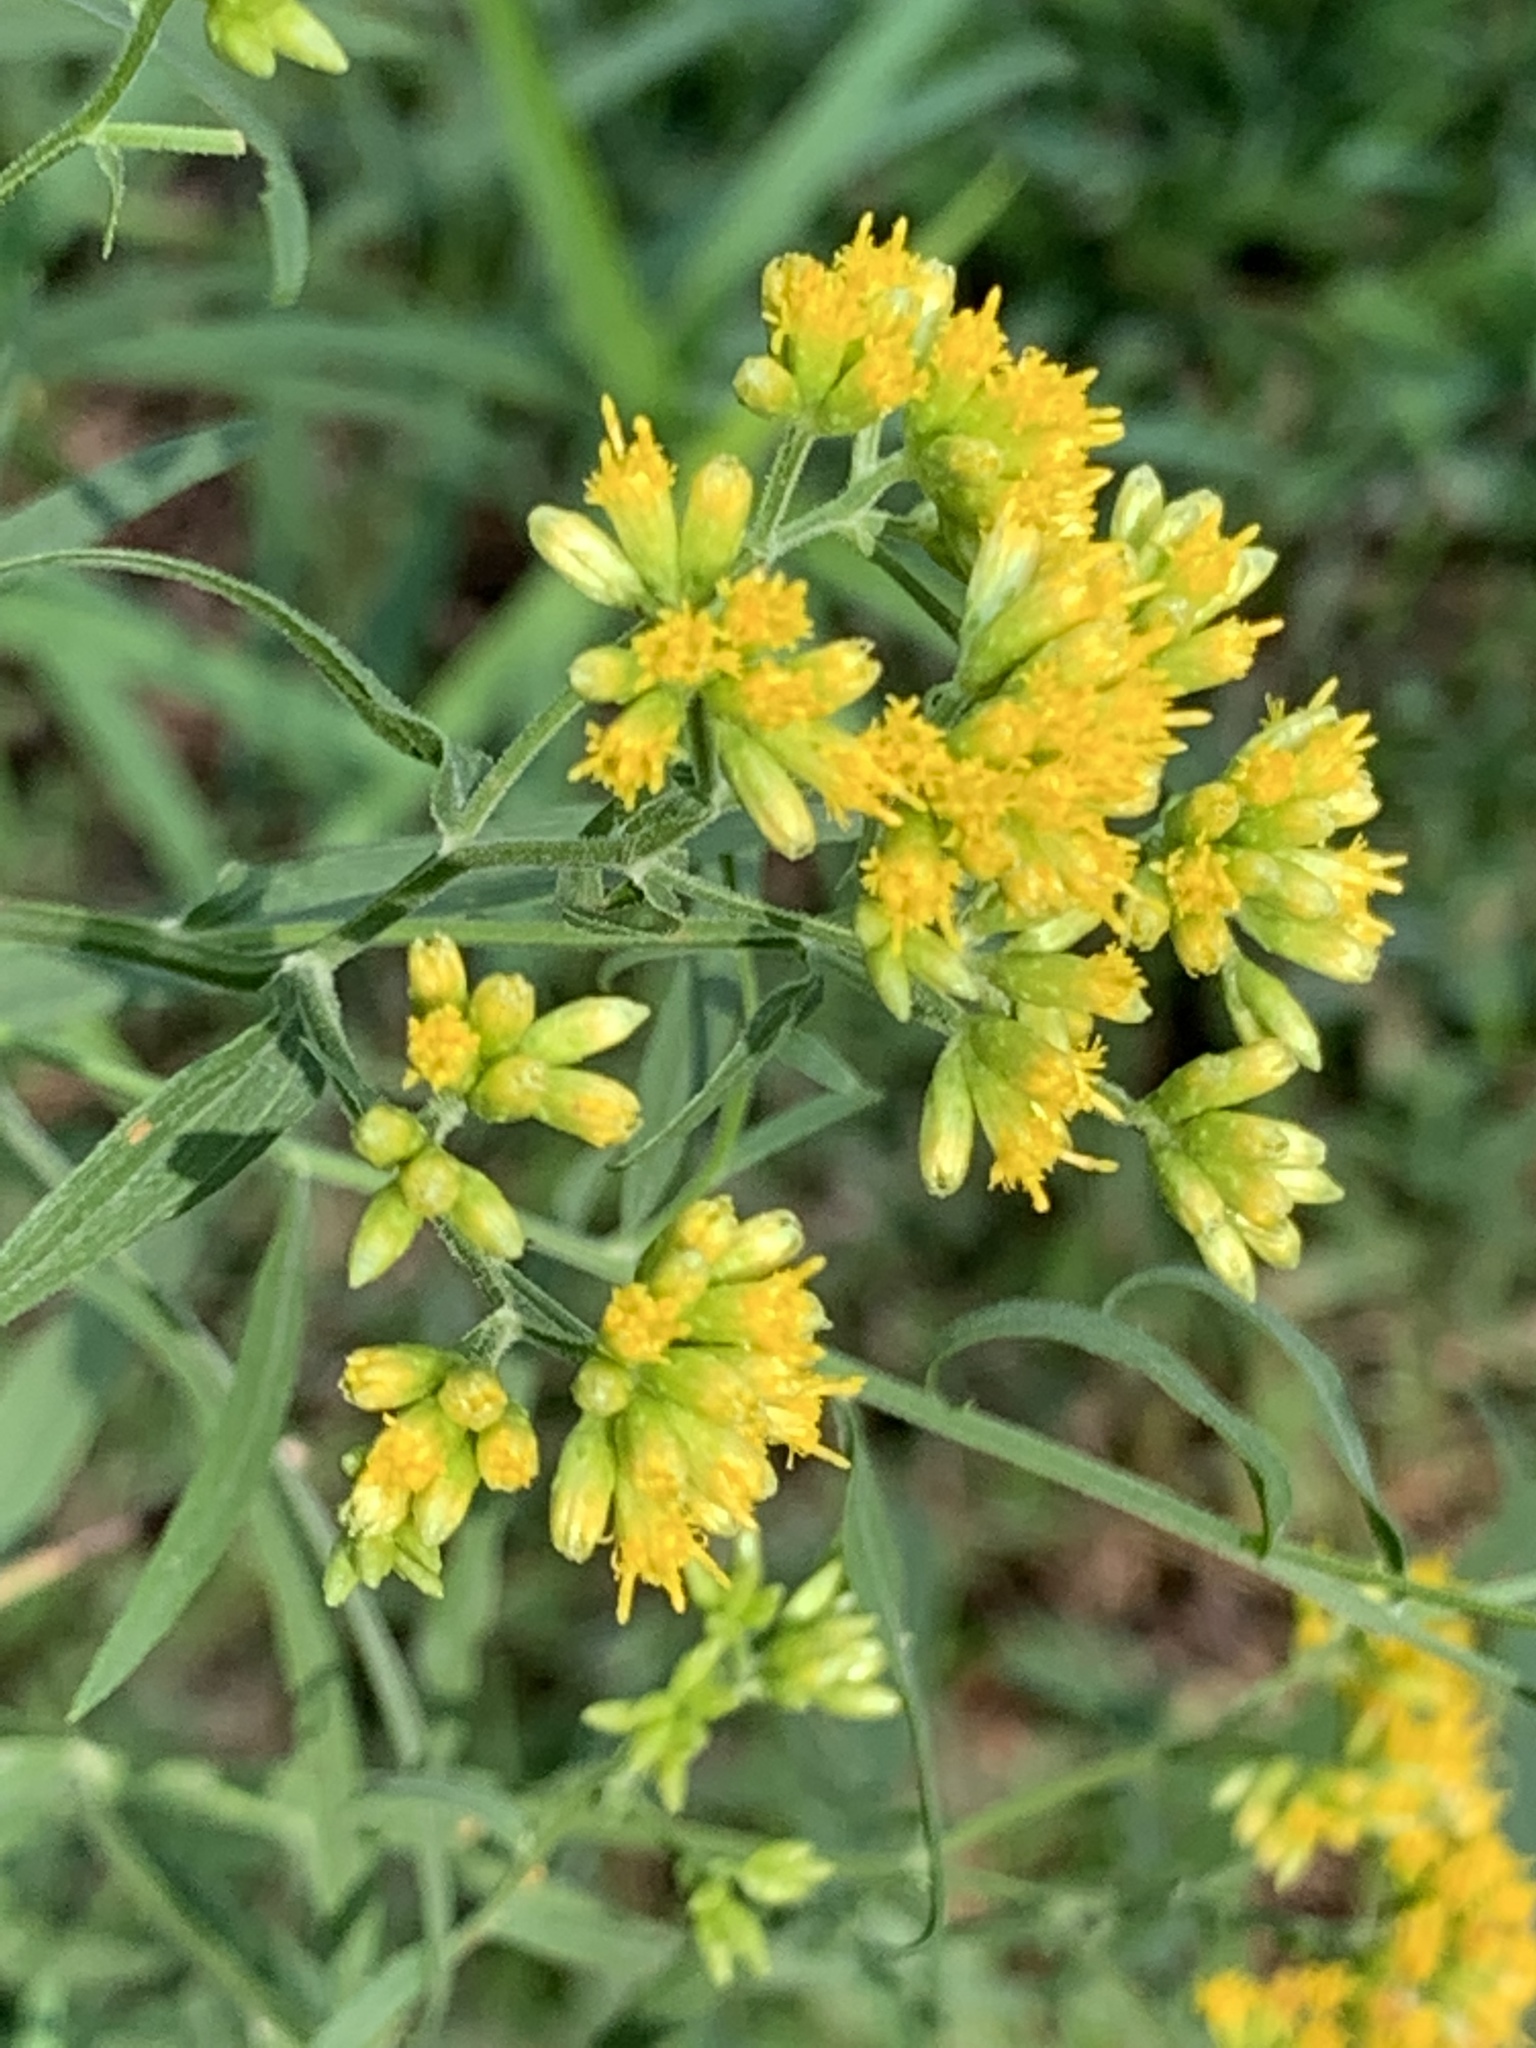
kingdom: Plantae
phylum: Tracheophyta
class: Magnoliopsida
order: Asterales
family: Asteraceae
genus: Euthamia
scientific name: Euthamia graminifolia
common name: Common goldentop
